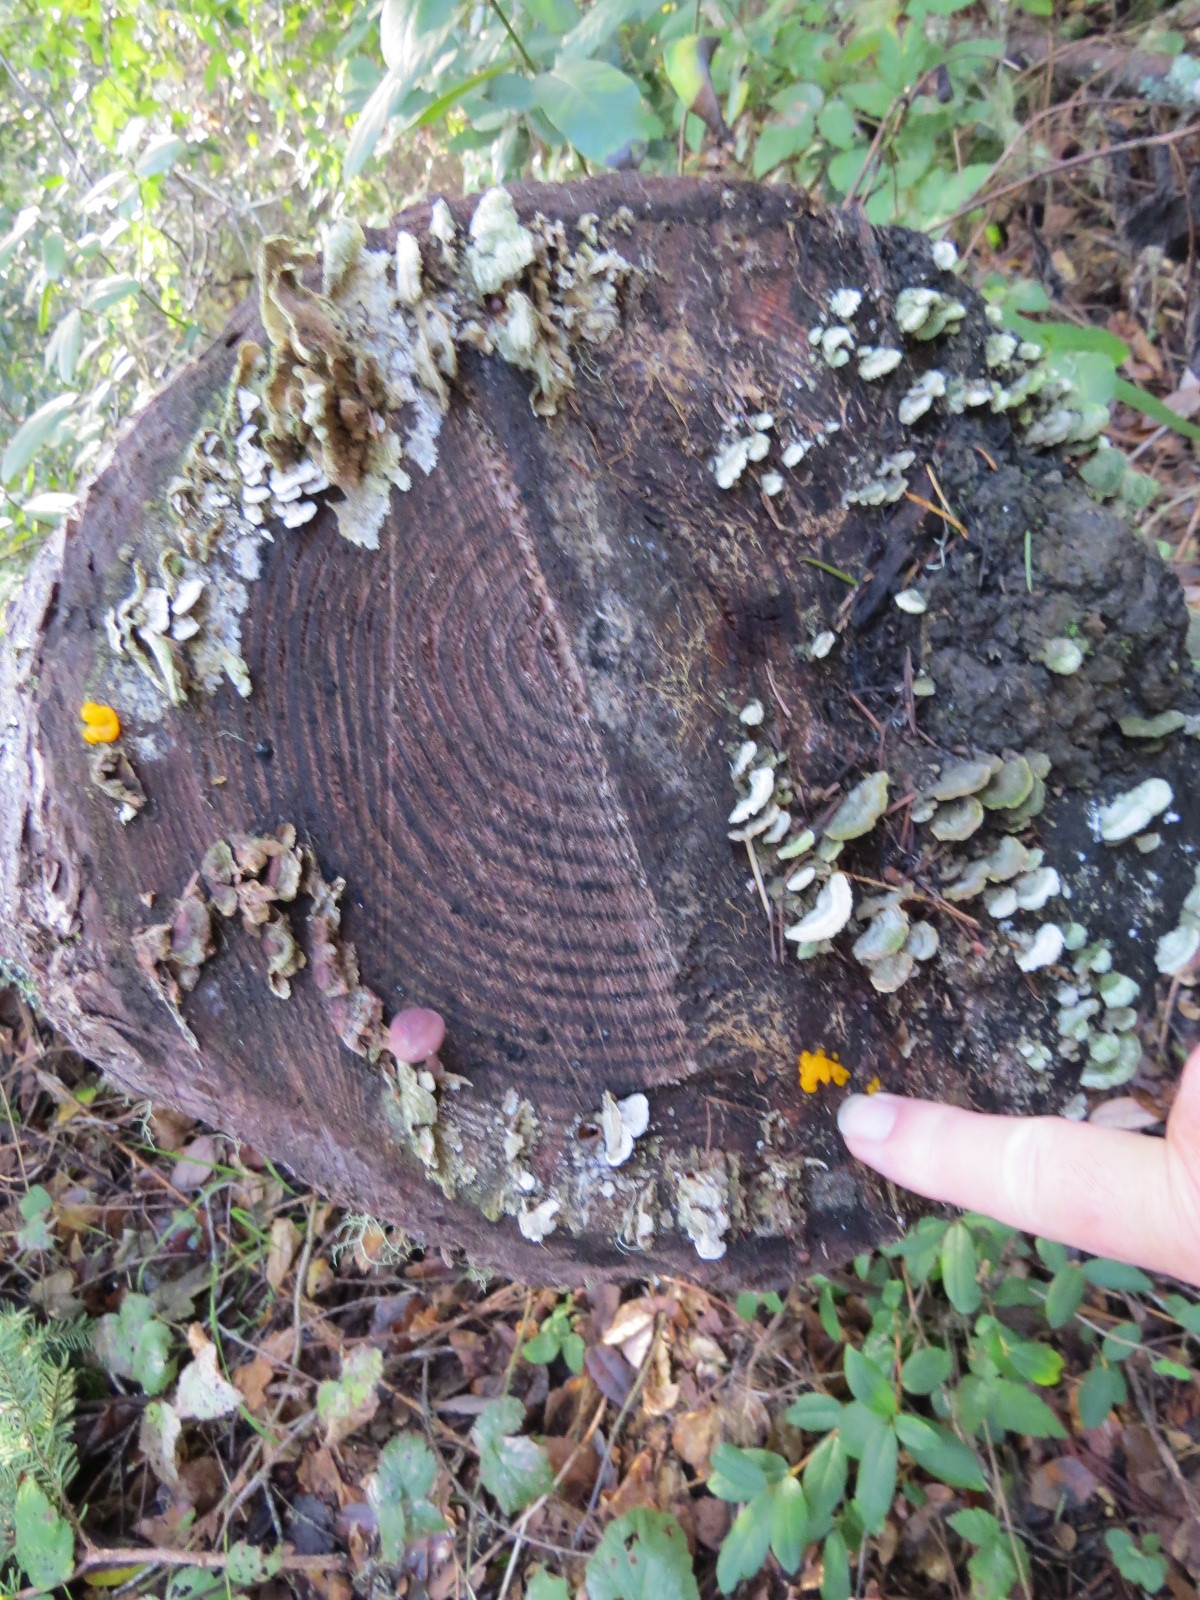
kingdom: Fungi
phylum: Basidiomycota
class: Dacrymycetes
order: Dacrymycetales
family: Dacrymycetaceae
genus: Dacrymyces
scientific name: Dacrymyces chrysospermus
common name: Orange jelly spot
